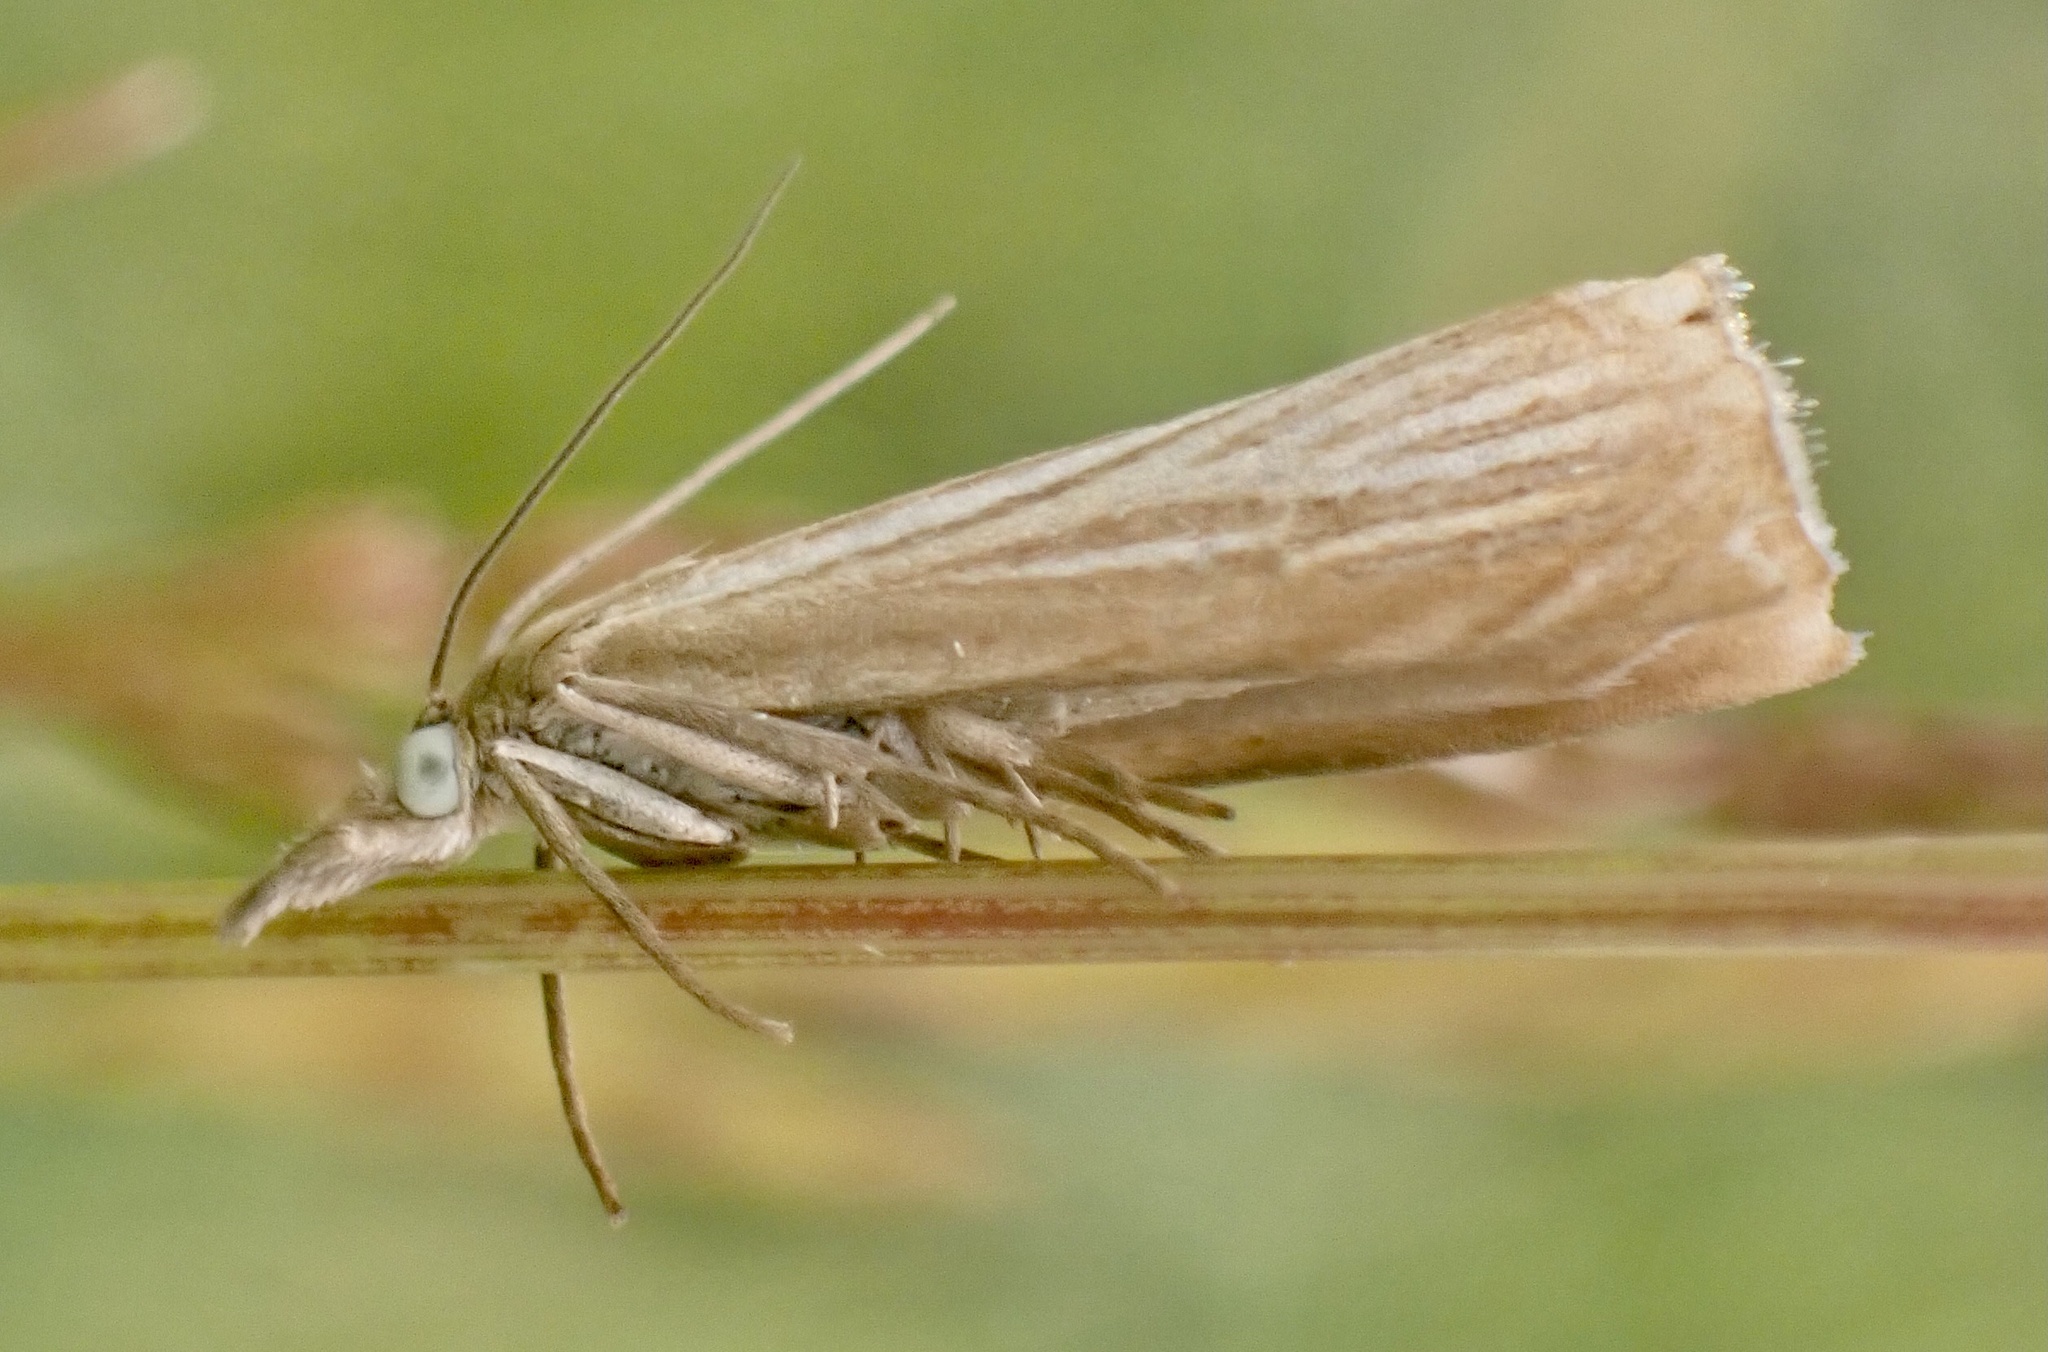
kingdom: Animalia
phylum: Arthropoda
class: Insecta
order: Lepidoptera
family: Crambidae
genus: Chrysoteuchia
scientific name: Chrysoteuchia culmella
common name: Garden grass-veneer
